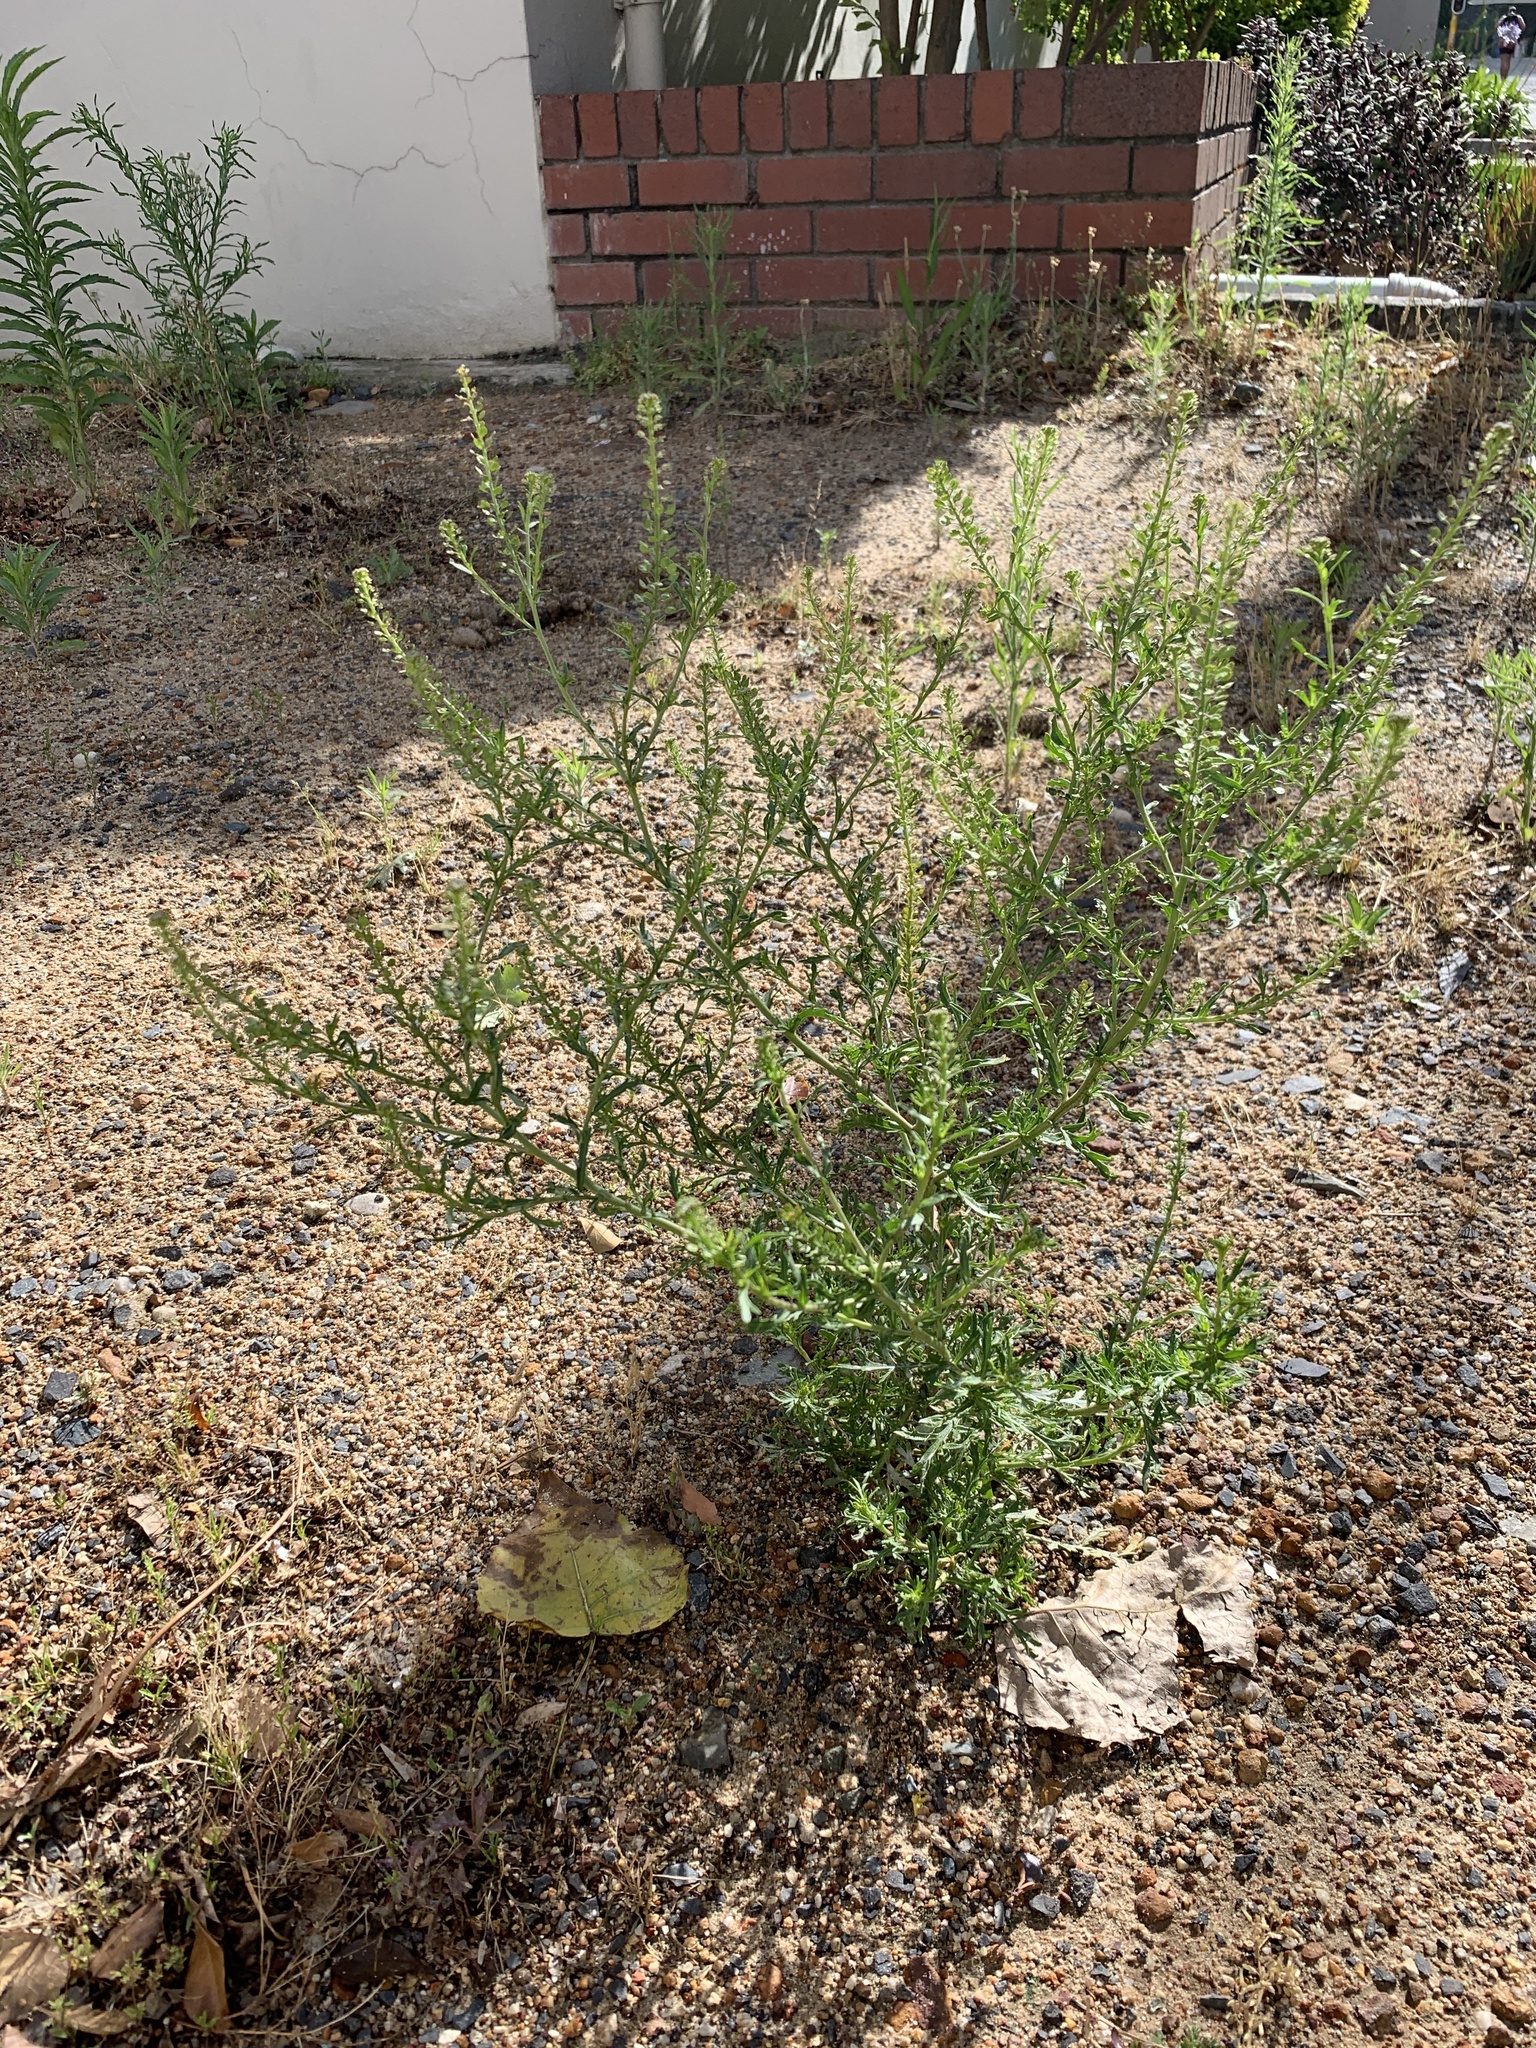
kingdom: Plantae
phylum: Tracheophyta
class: Magnoliopsida
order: Brassicales
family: Brassicaceae
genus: Lepidium
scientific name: Lepidium bonariense
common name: Argentine pepperwort
